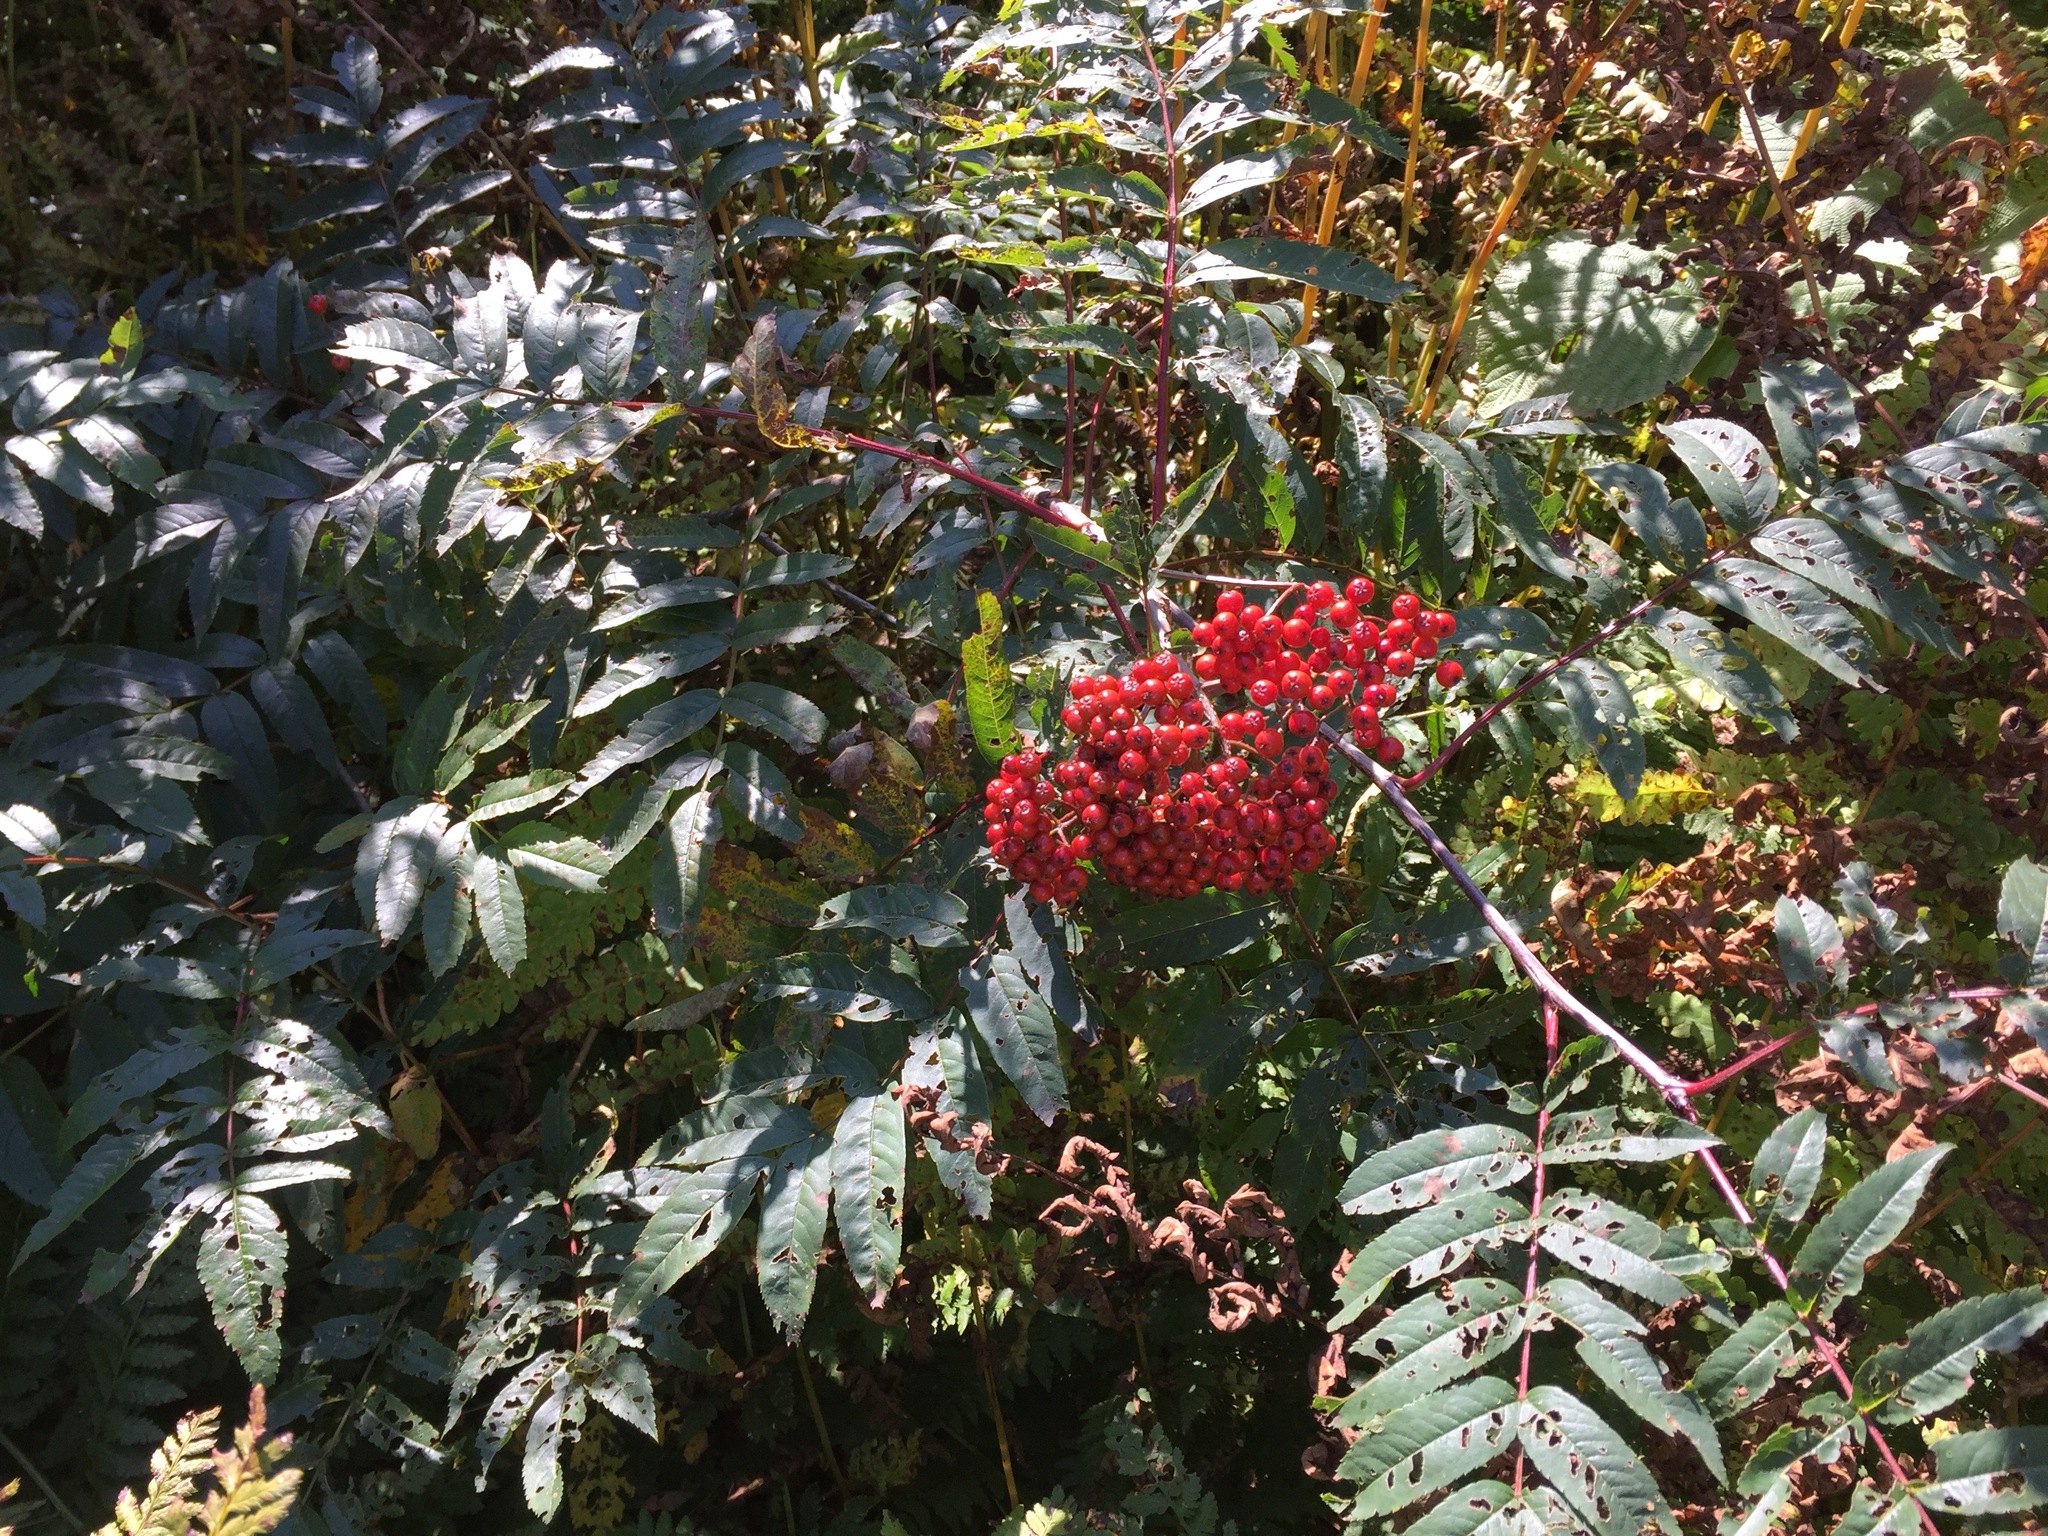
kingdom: Plantae
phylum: Tracheophyta
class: Magnoliopsida
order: Rosales
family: Rosaceae
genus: Sorbus
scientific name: Sorbus americana
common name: American mountain-ash
